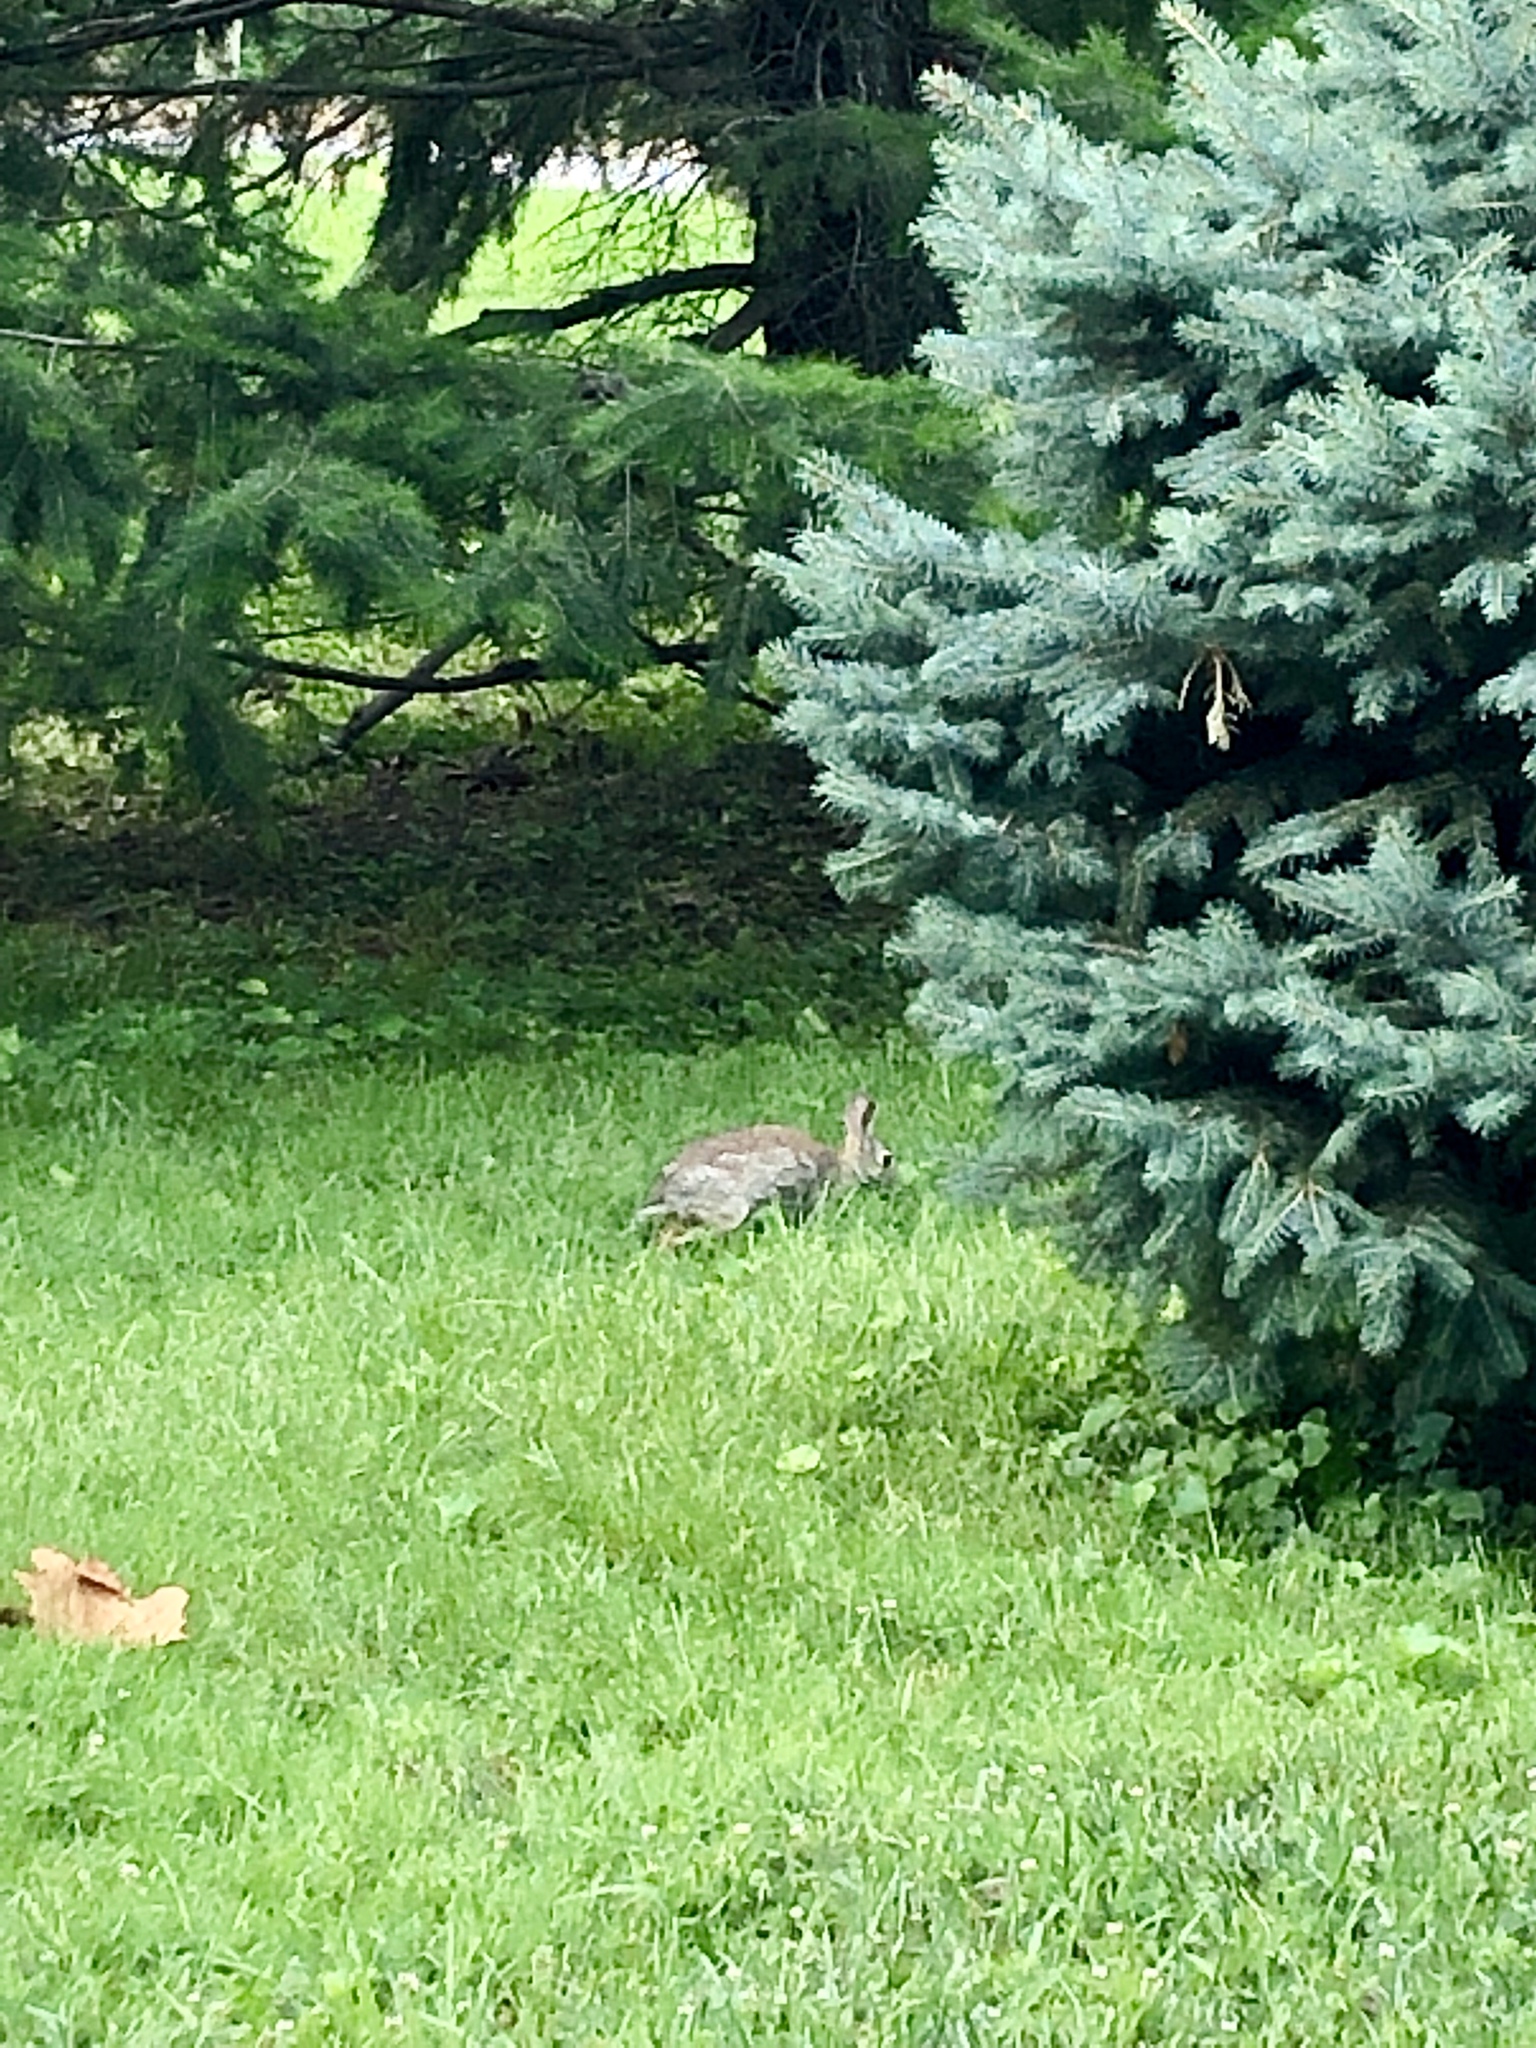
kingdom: Animalia
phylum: Chordata
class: Mammalia
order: Lagomorpha
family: Leporidae
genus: Sylvilagus
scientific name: Sylvilagus floridanus
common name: Eastern cottontail
